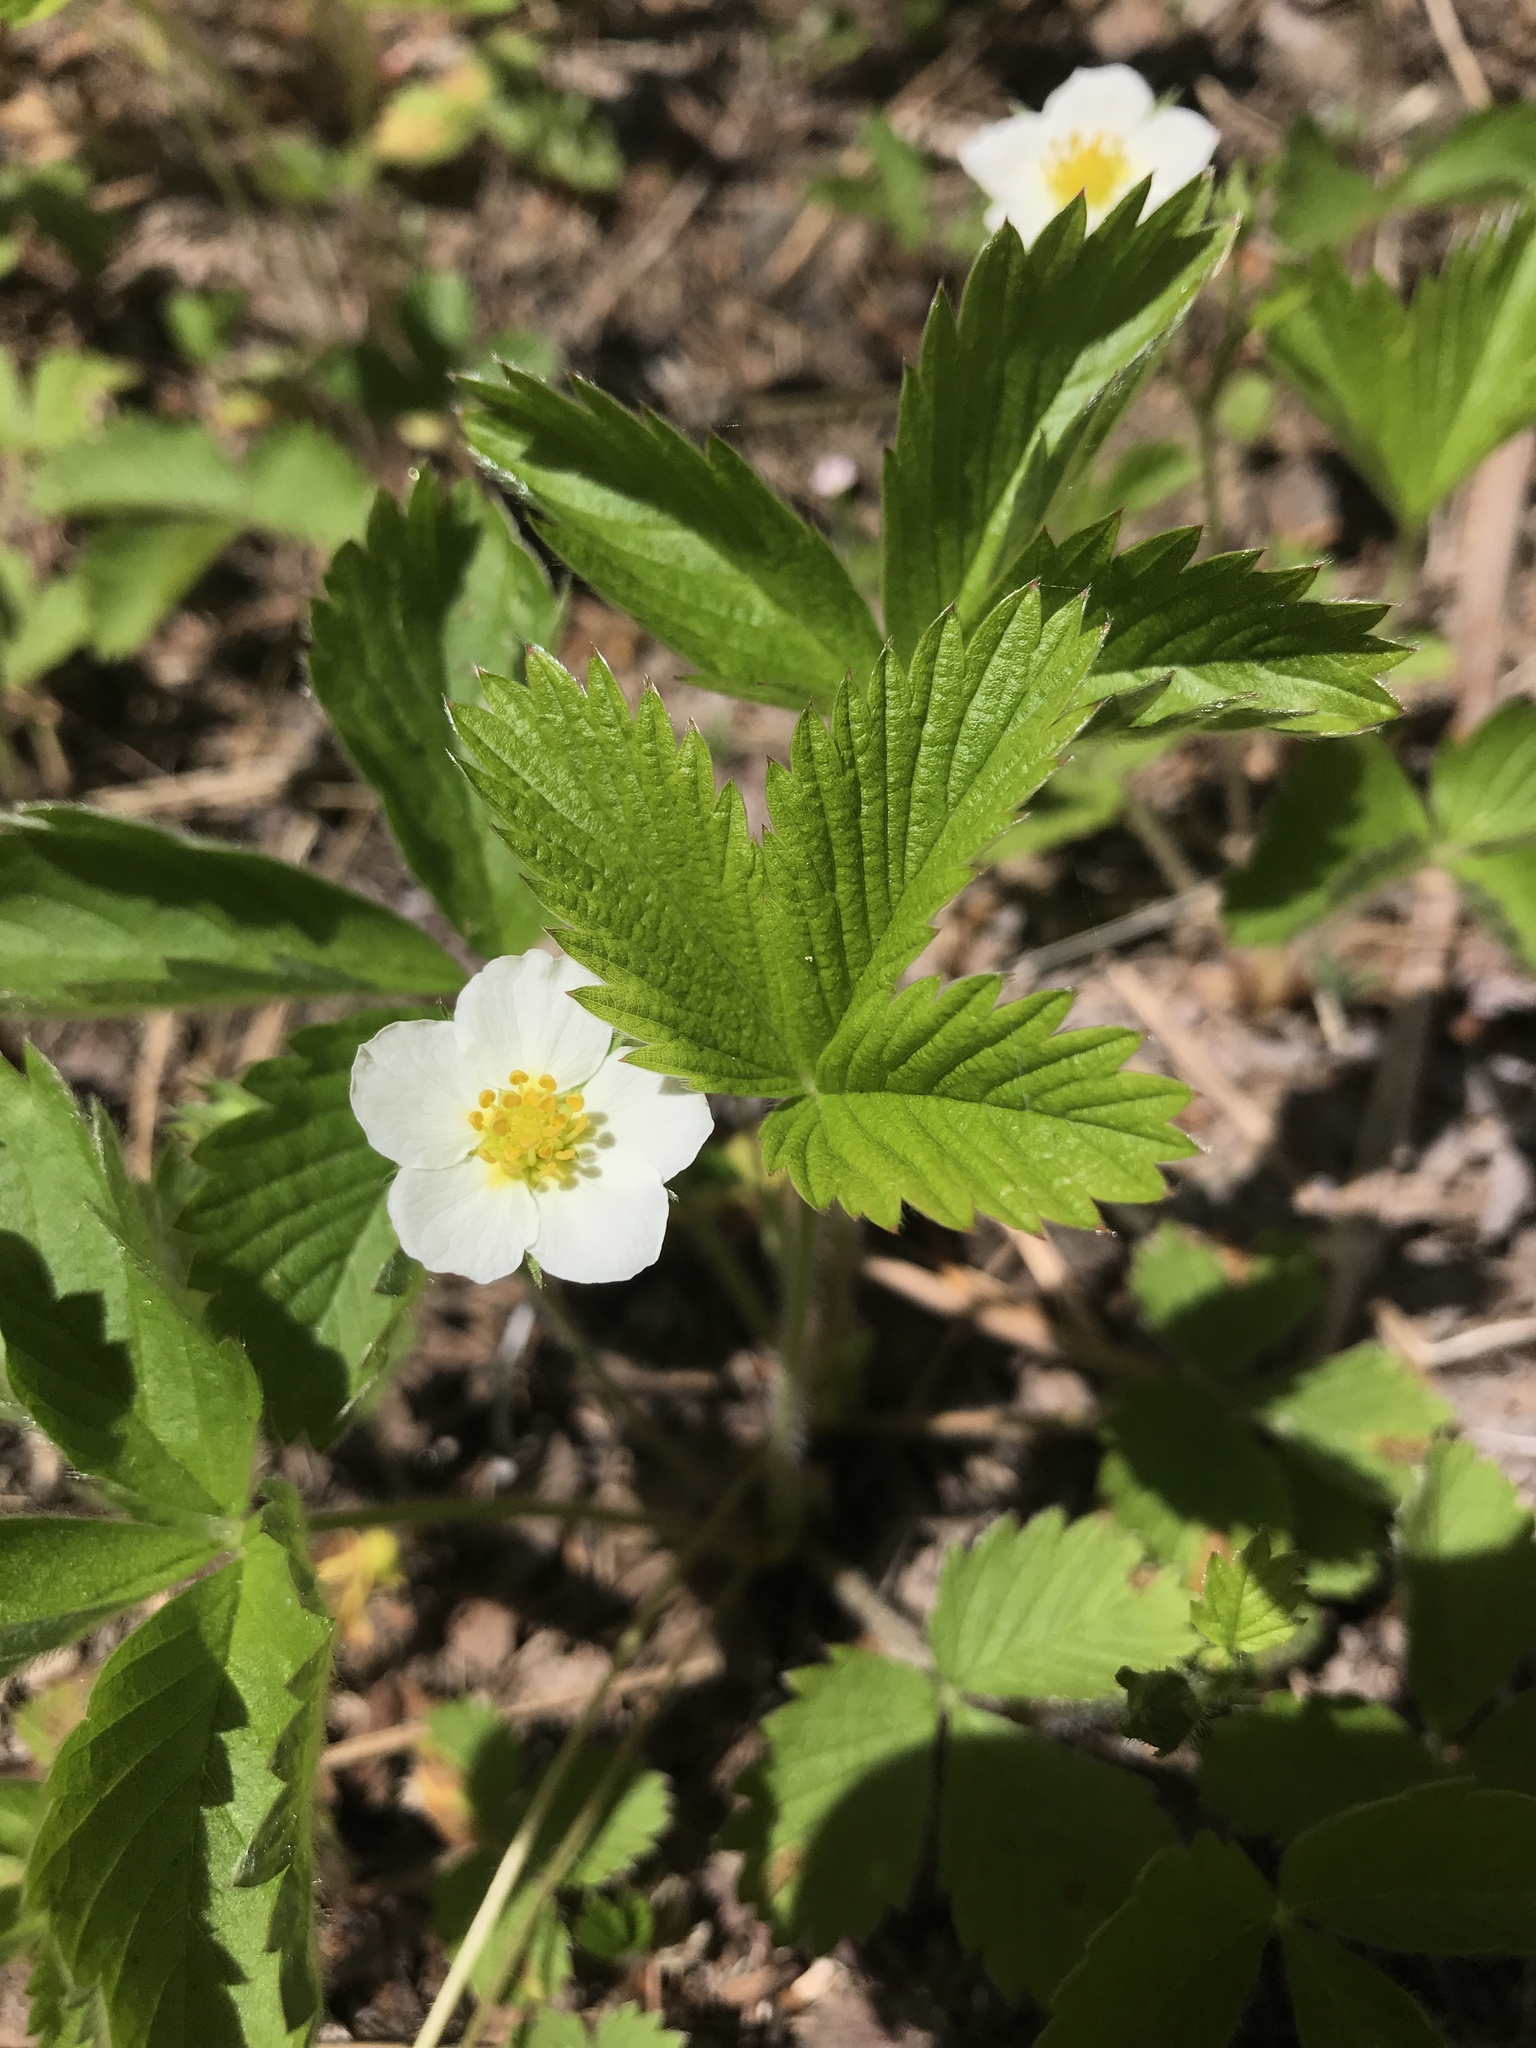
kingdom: Plantae
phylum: Tracheophyta
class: Magnoliopsida
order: Rosales
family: Rosaceae
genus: Fragaria
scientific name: Fragaria vesca
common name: Wild strawberry
